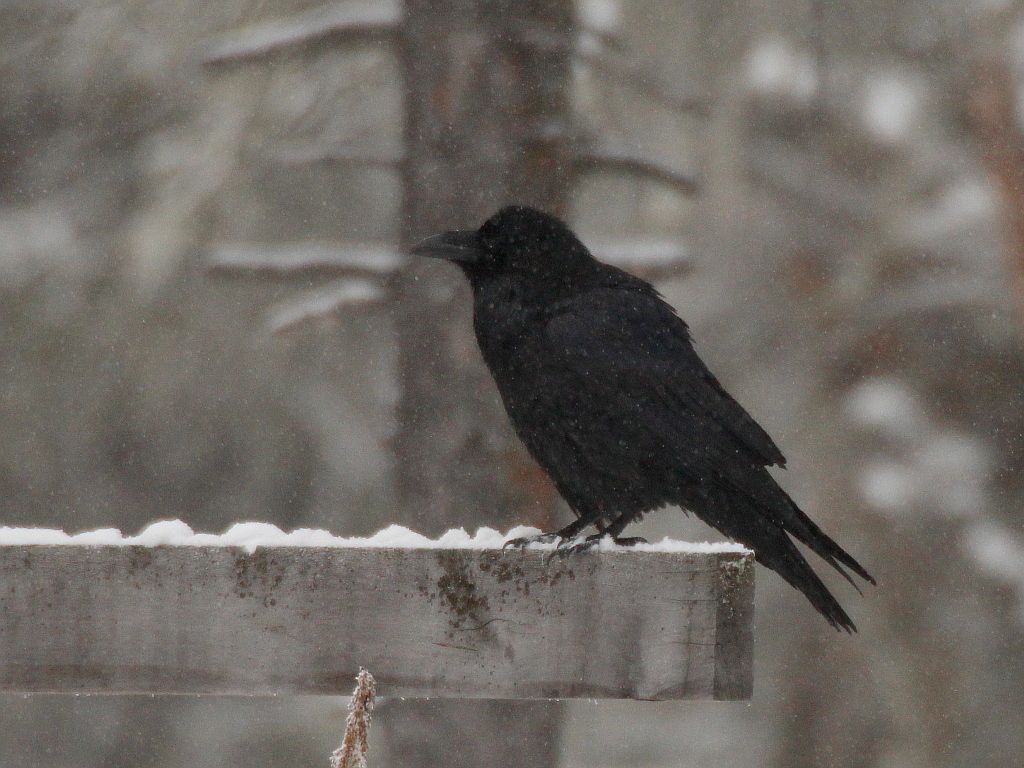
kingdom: Animalia
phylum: Chordata
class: Aves
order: Passeriformes
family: Corvidae
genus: Corvus
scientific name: Corvus corax
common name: Common raven
